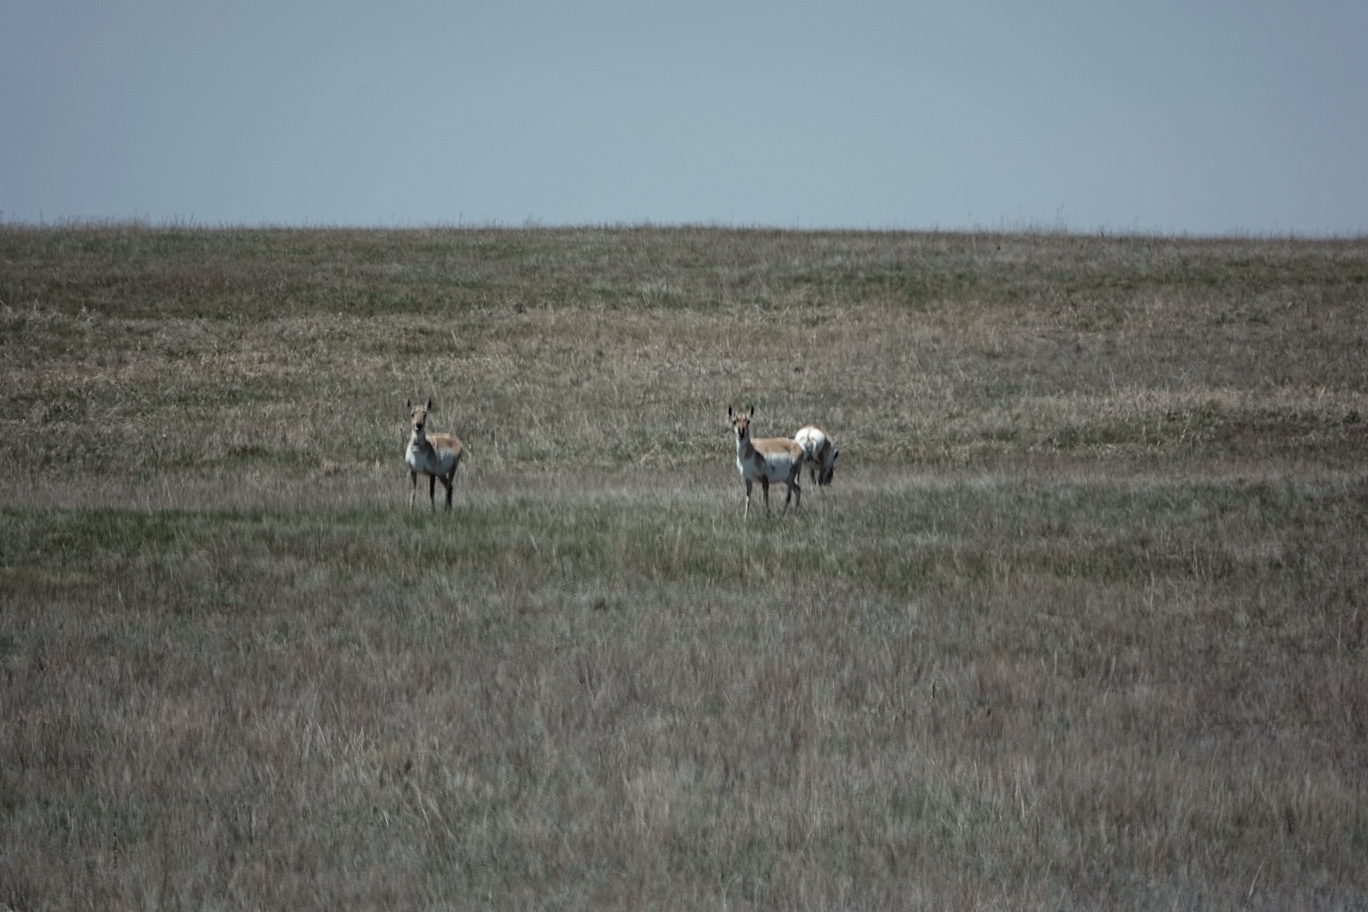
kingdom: Animalia
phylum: Chordata
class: Mammalia
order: Artiodactyla
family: Antilocapridae
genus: Antilocapra
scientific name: Antilocapra americana
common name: Pronghorn
